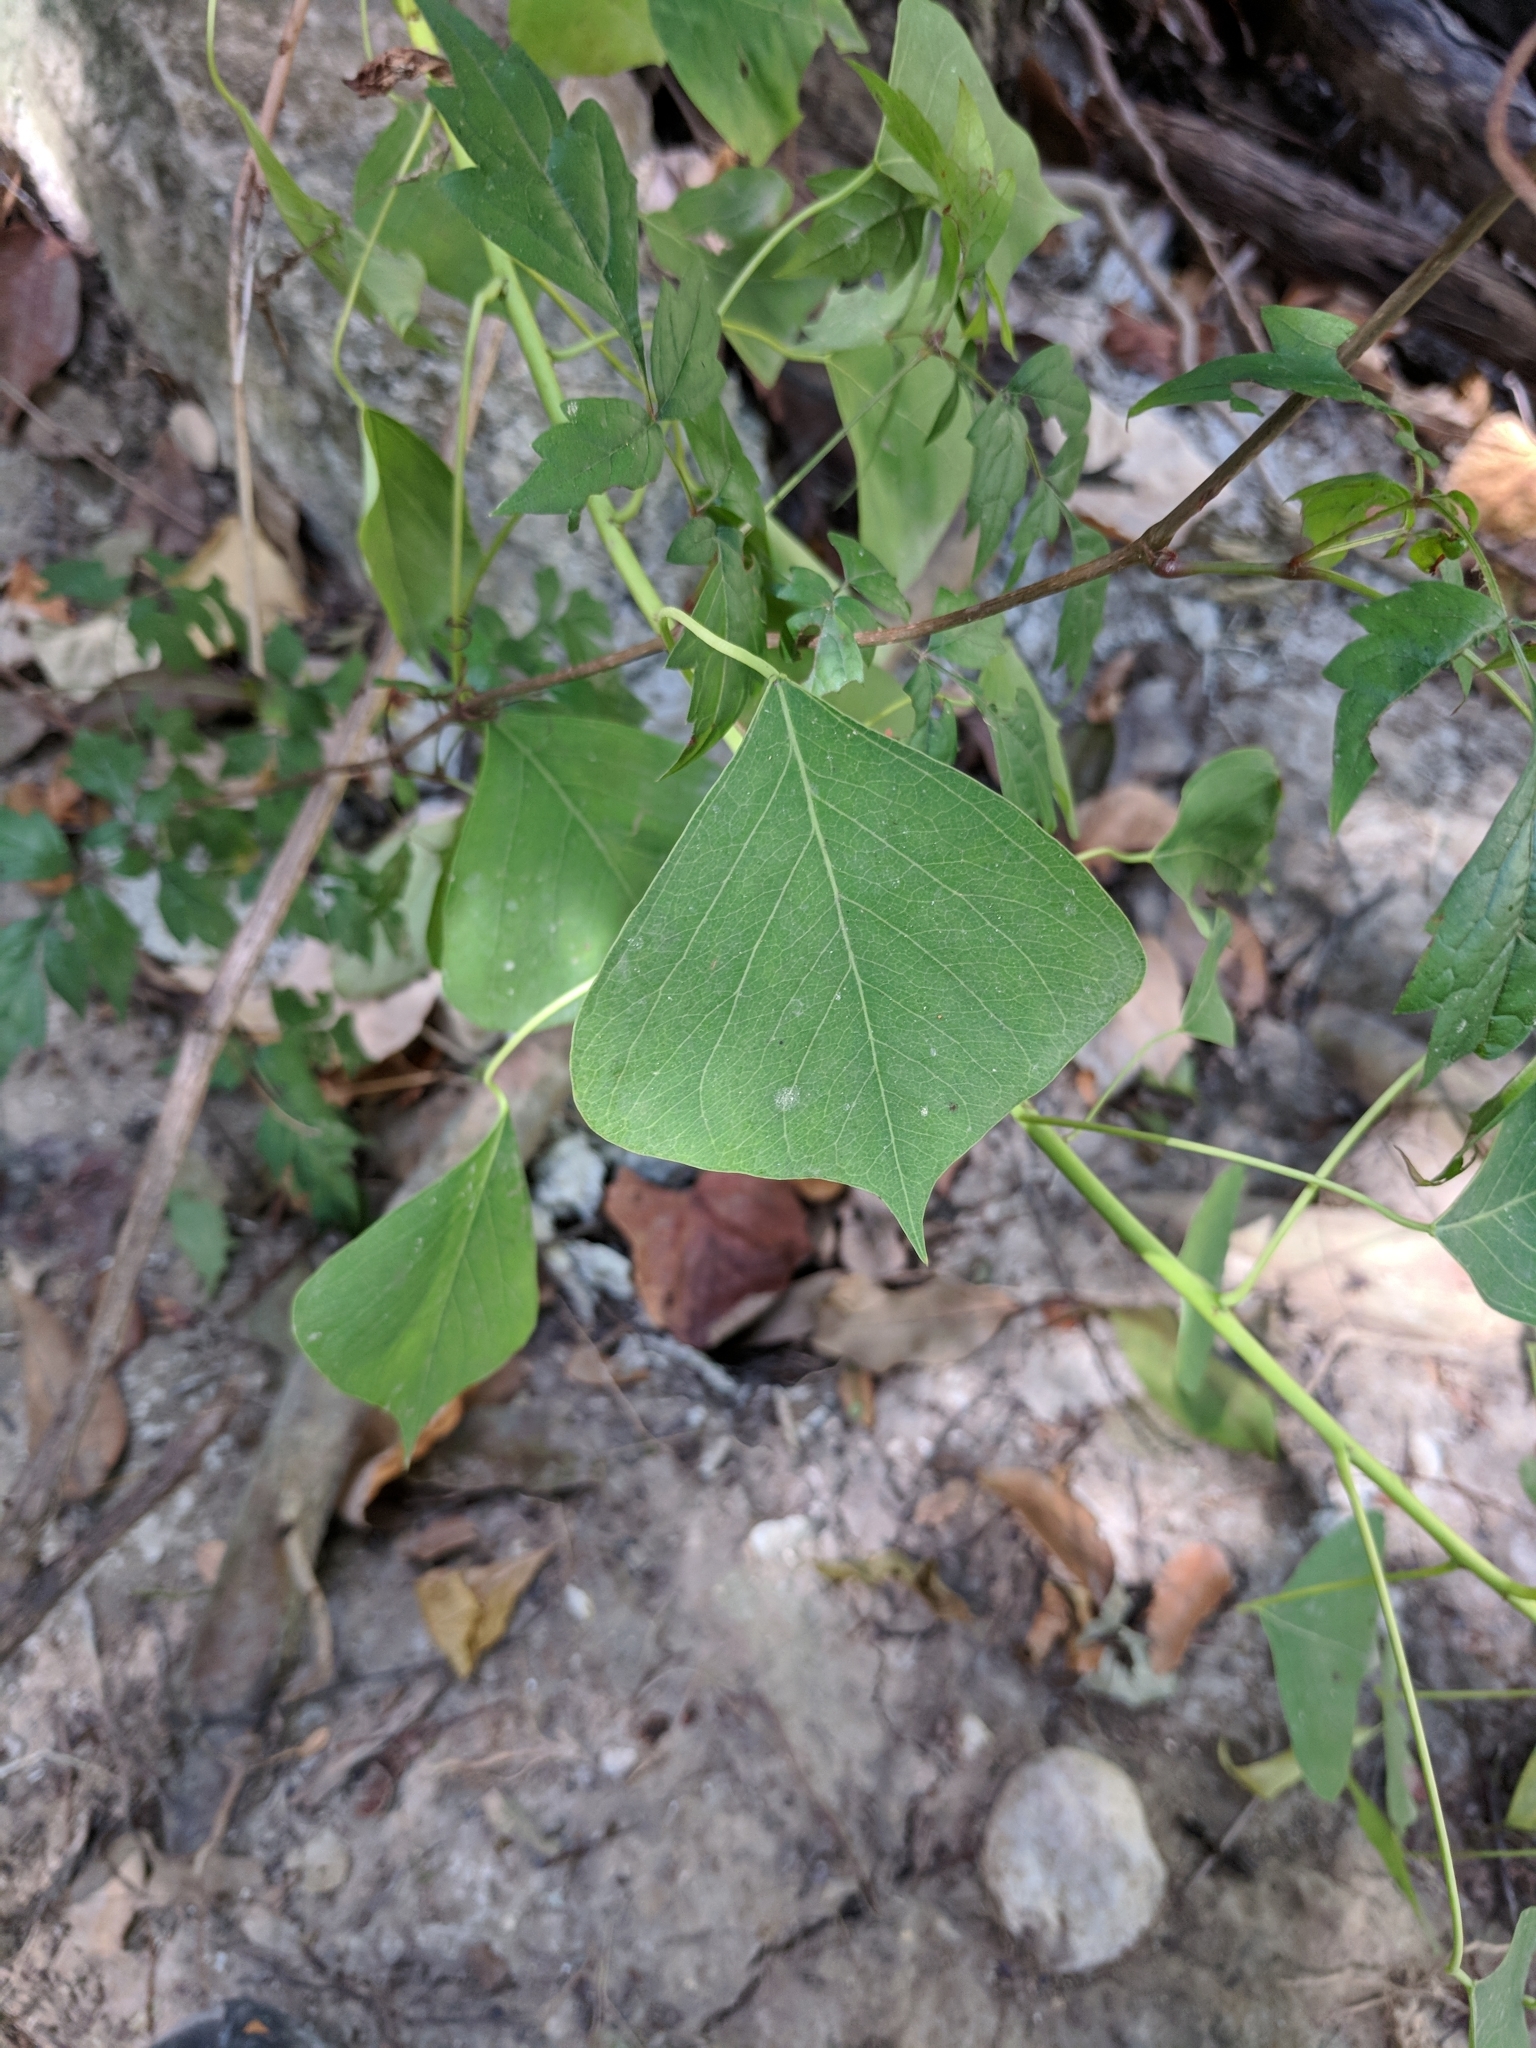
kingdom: Plantae
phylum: Tracheophyta
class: Magnoliopsida
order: Malpighiales
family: Euphorbiaceae
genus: Triadica
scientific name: Triadica sebifera
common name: Chinese tallow
